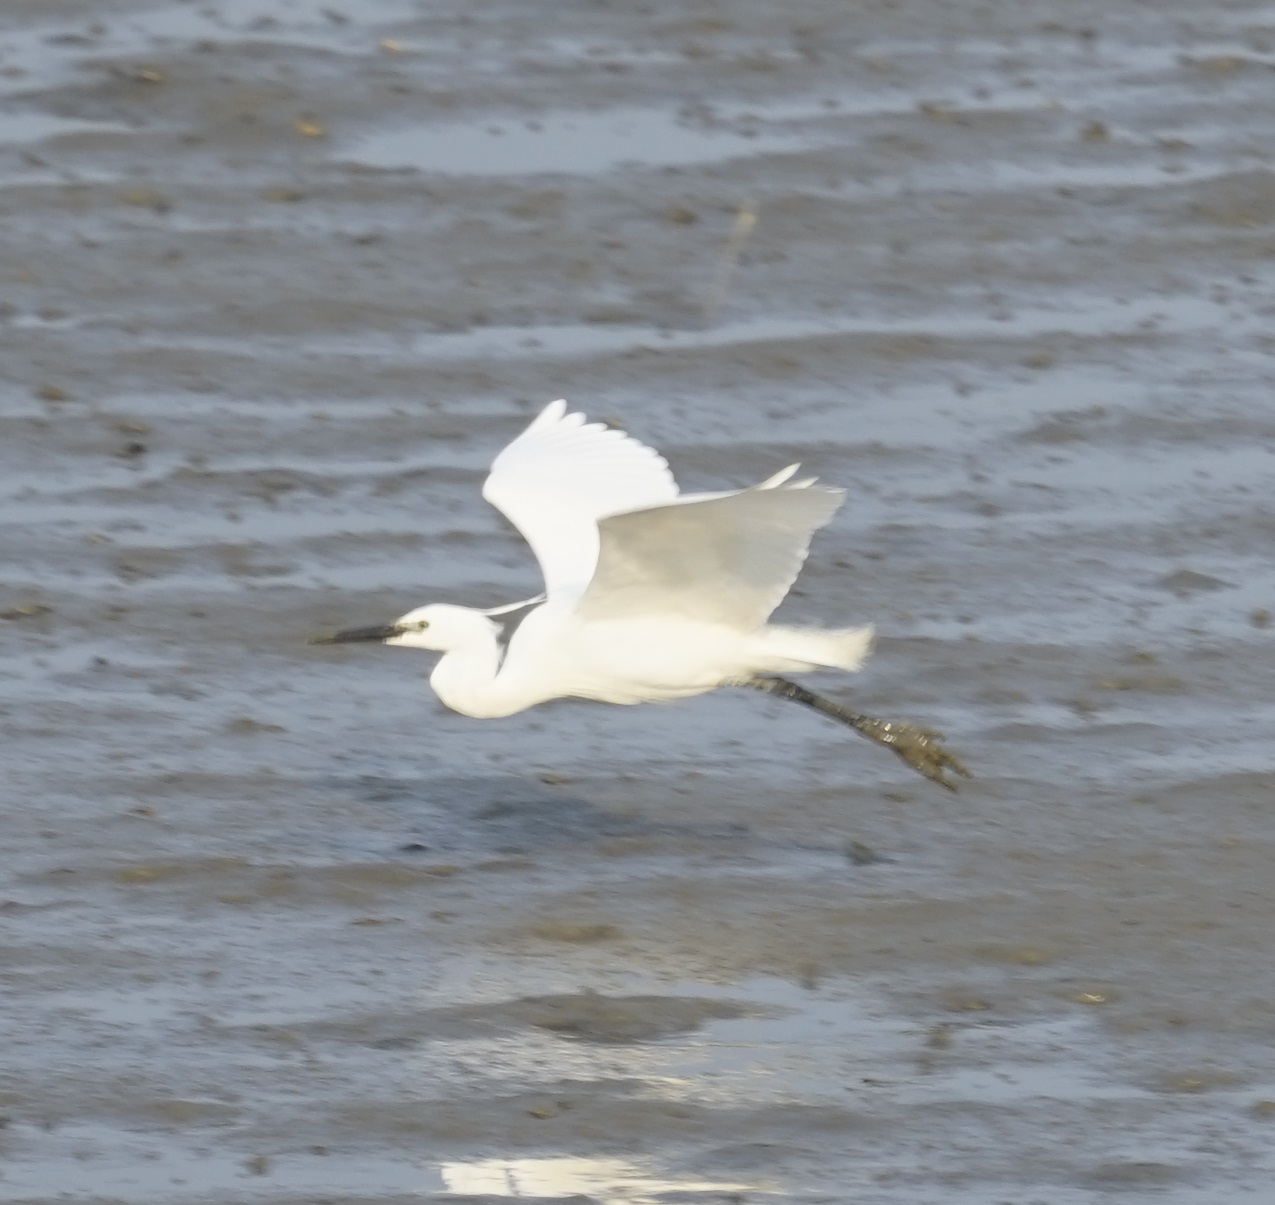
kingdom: Animalia
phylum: Chordata
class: Aves
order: Pelecaniformes
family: Ardeidae
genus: Egretta
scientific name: Egretta garzetta
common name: Little egret
